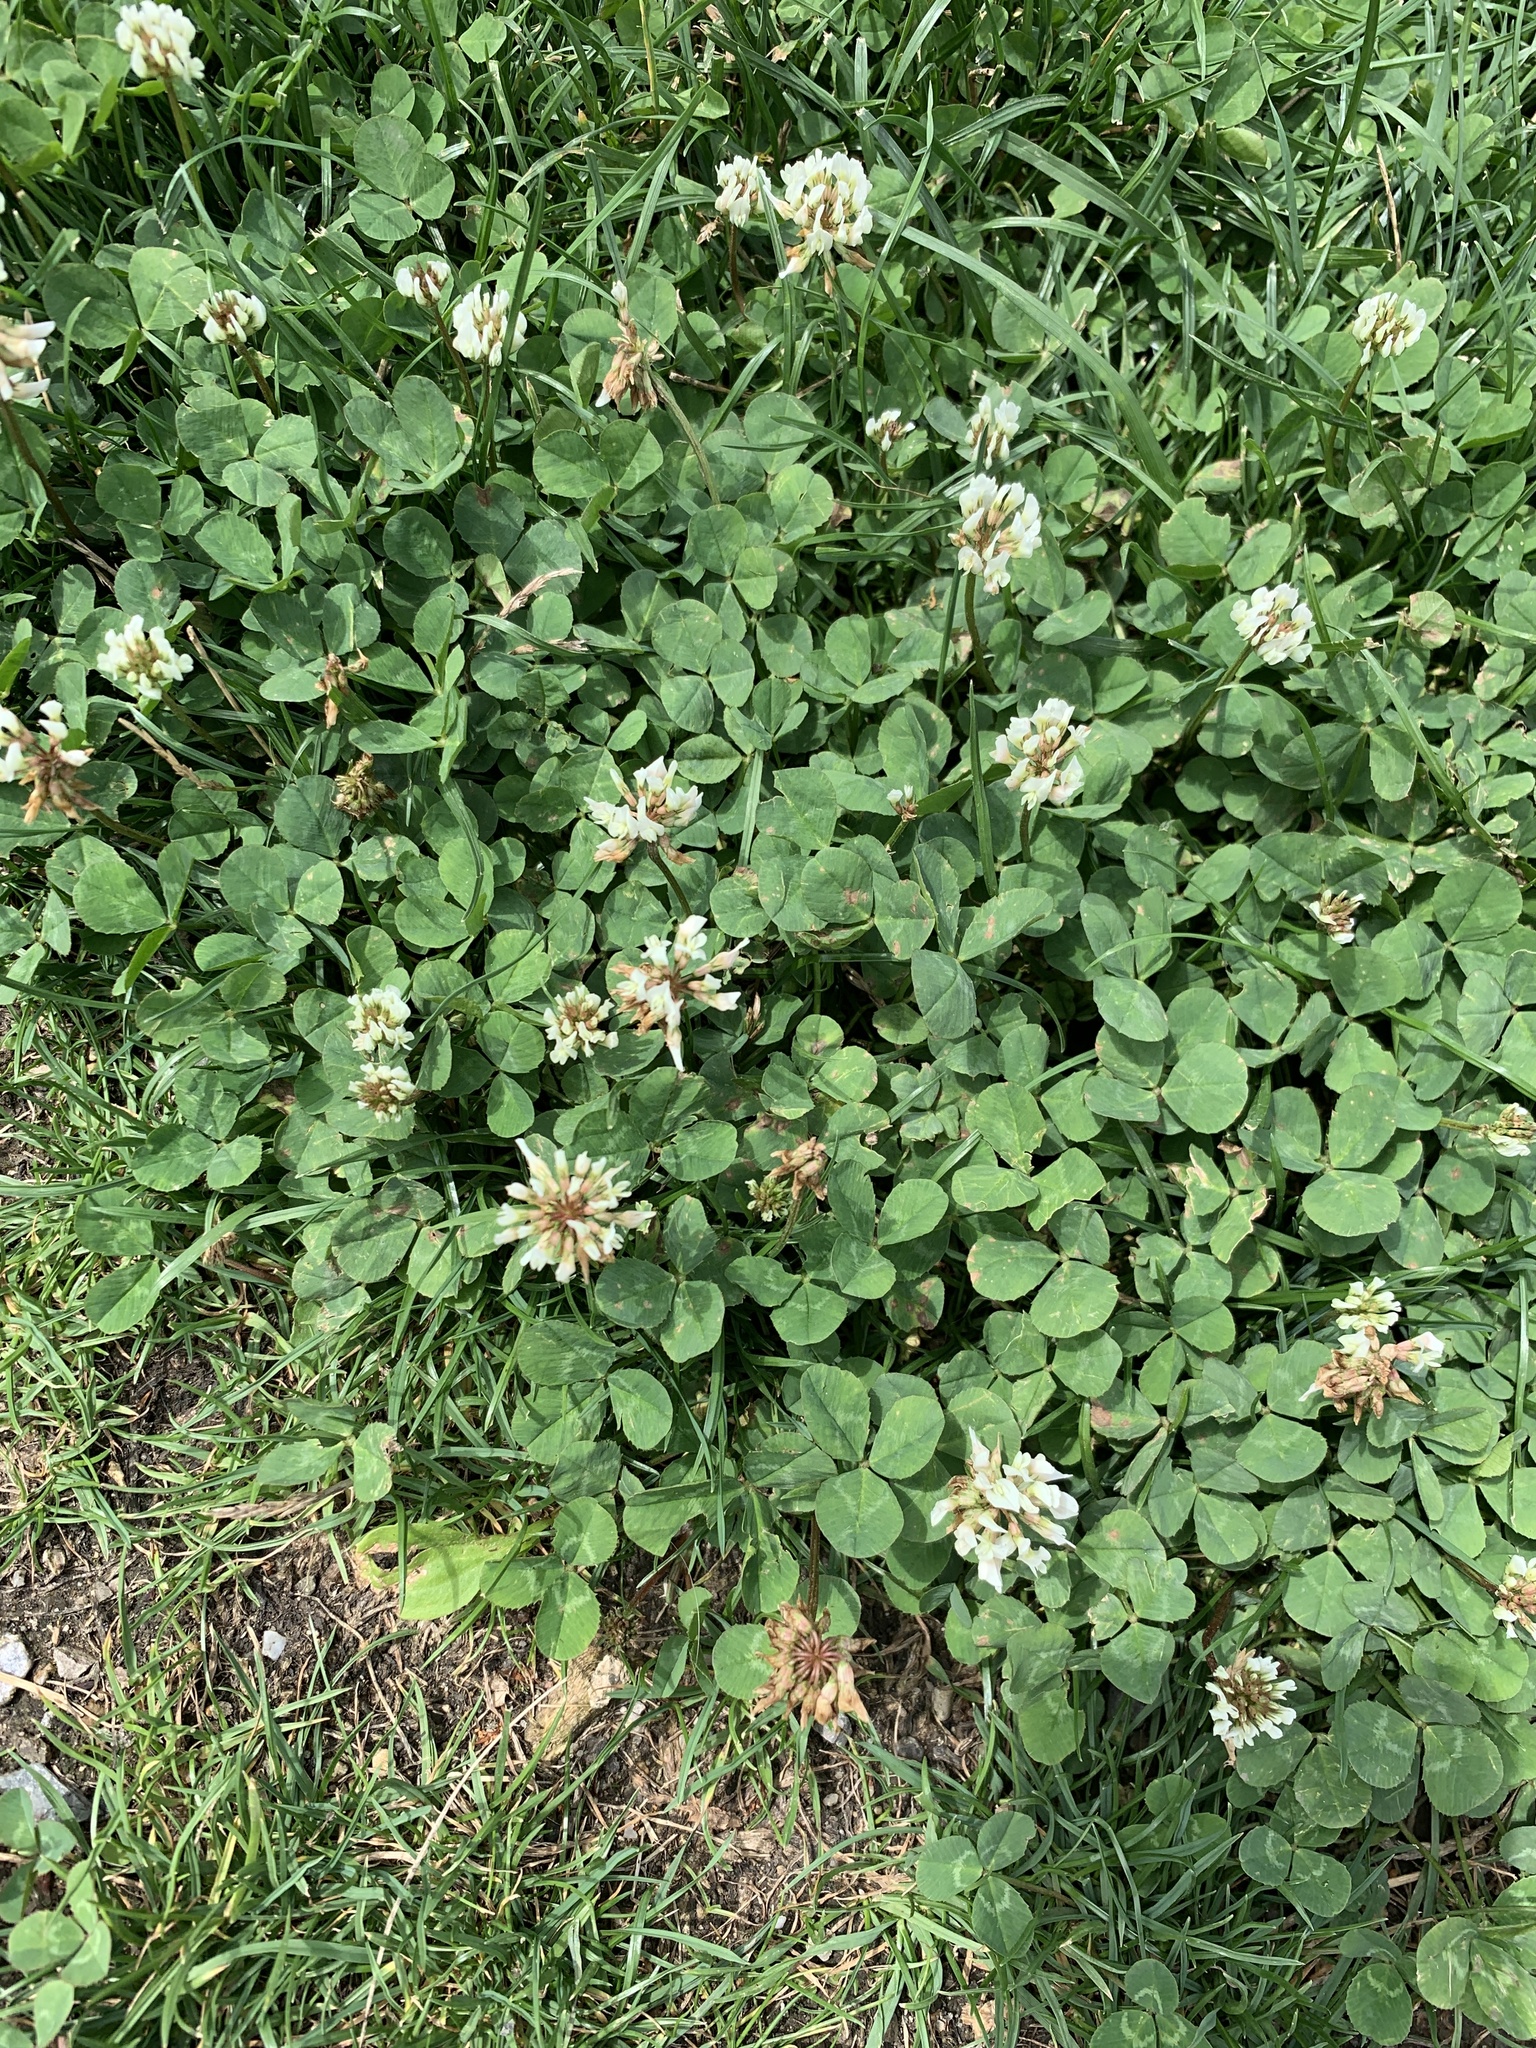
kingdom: Plantae
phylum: Tracheophyta
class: Magnoliopsida
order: Fabales
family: Fabaceae
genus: Trifolium
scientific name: Trifolium repens
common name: White clover
